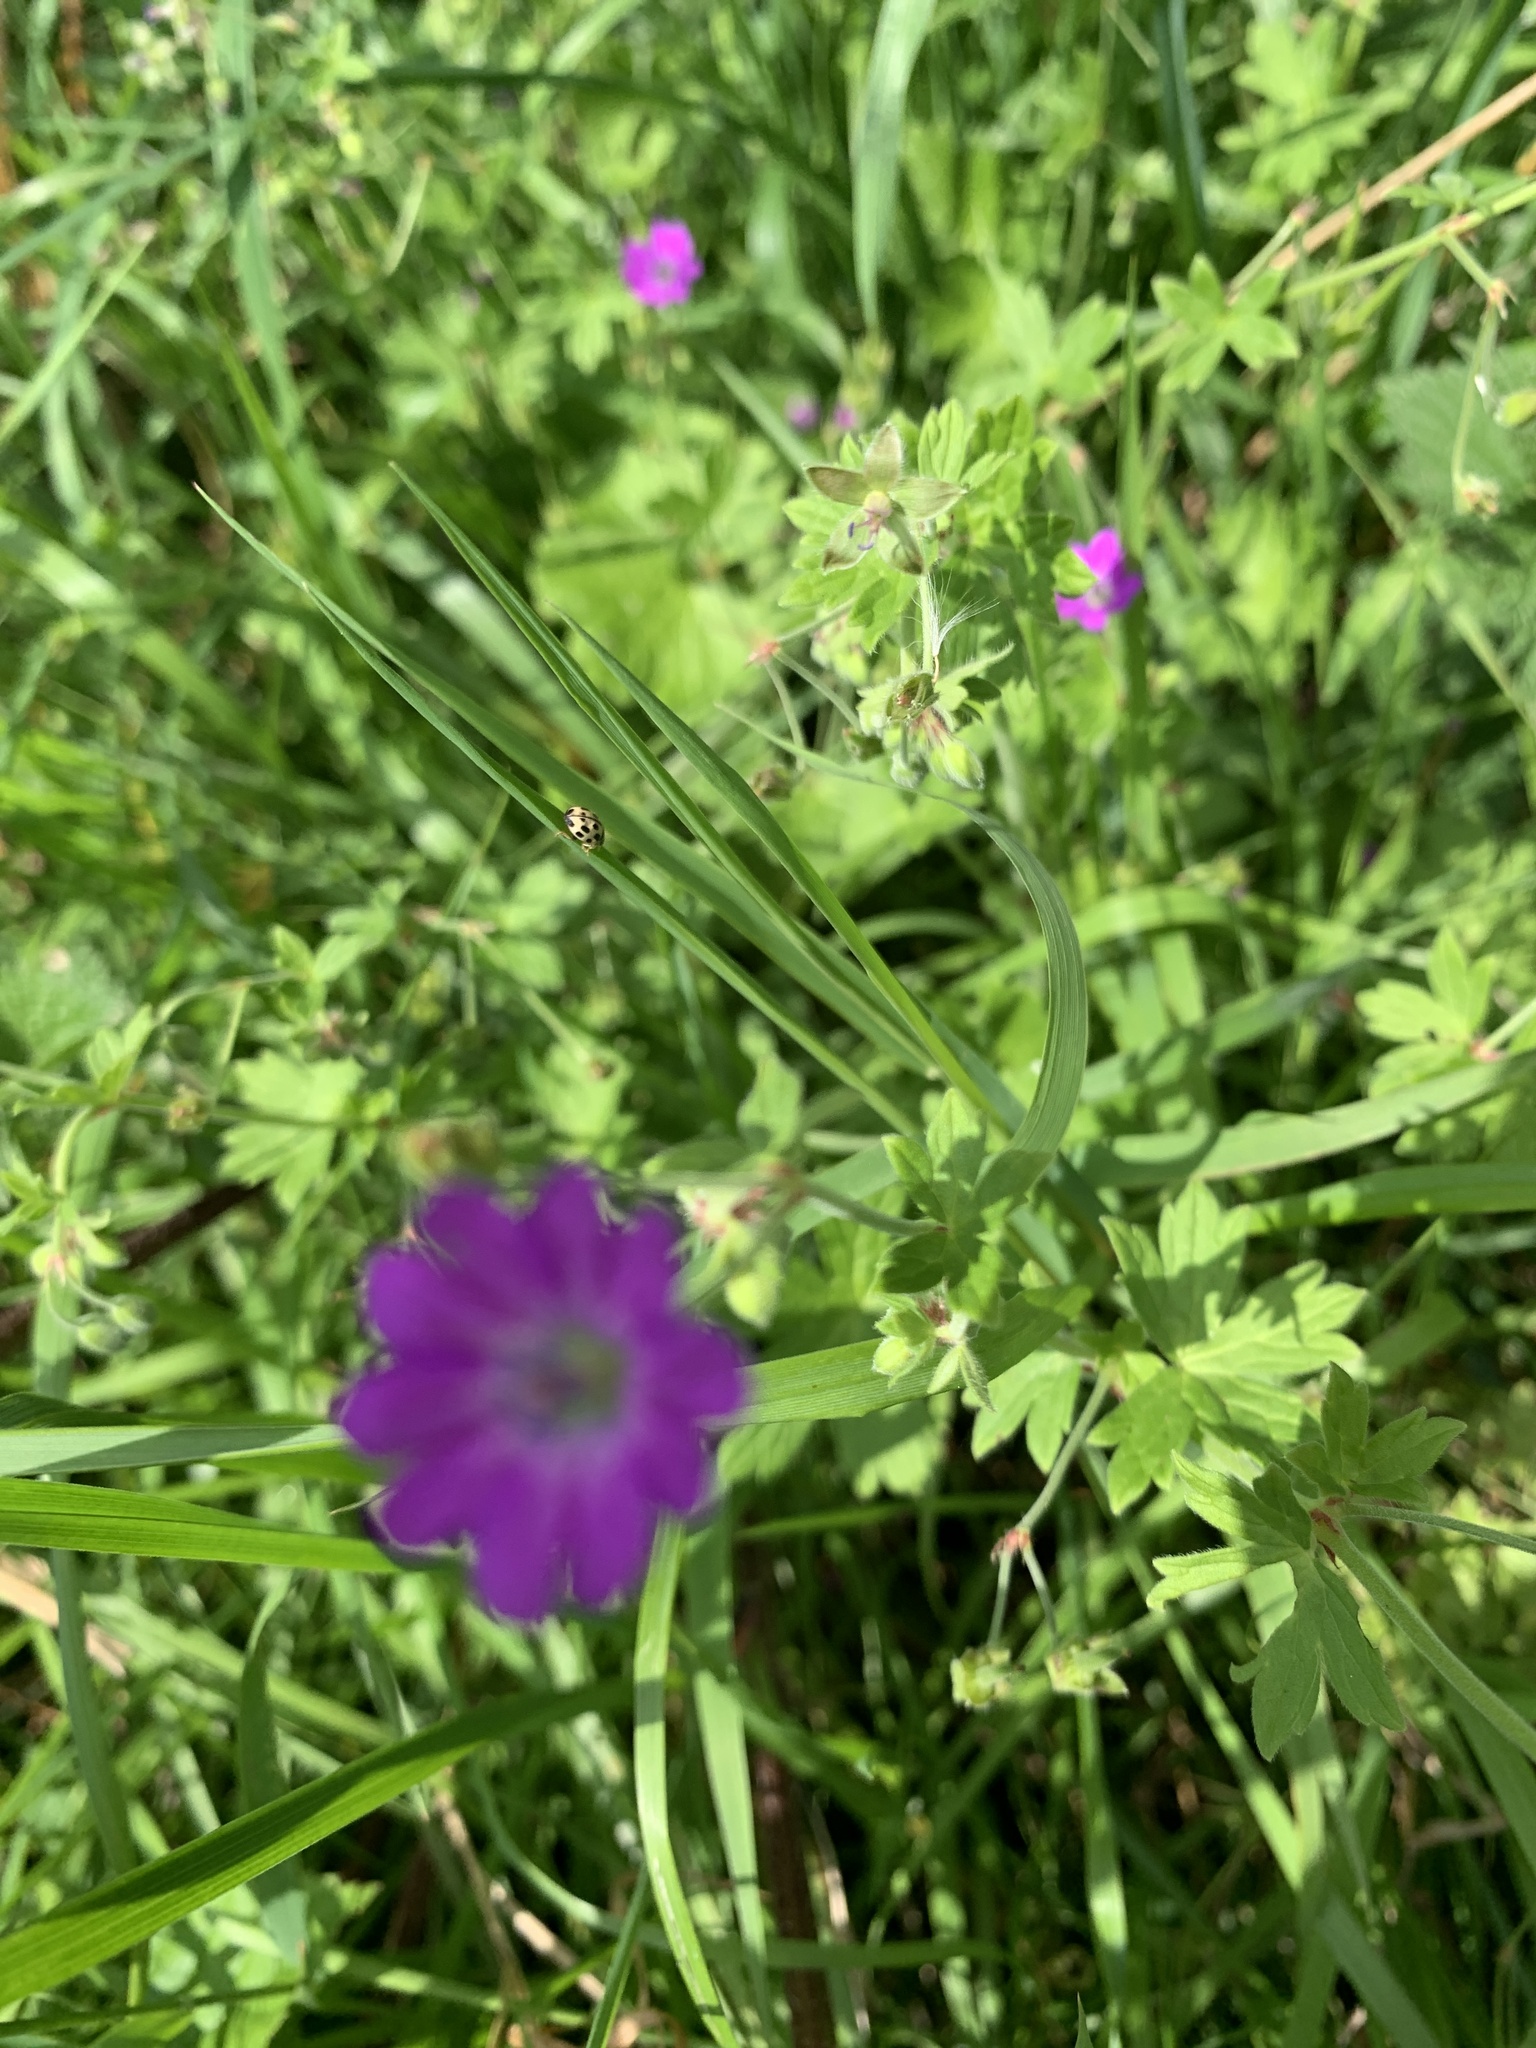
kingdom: Plantae
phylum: Tracheophyta
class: Magnoliopsida
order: Geraniales
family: Geraniaceae
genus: Geranium
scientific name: Geranium pyrenaicum
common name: Hedgerow crane's-bill
